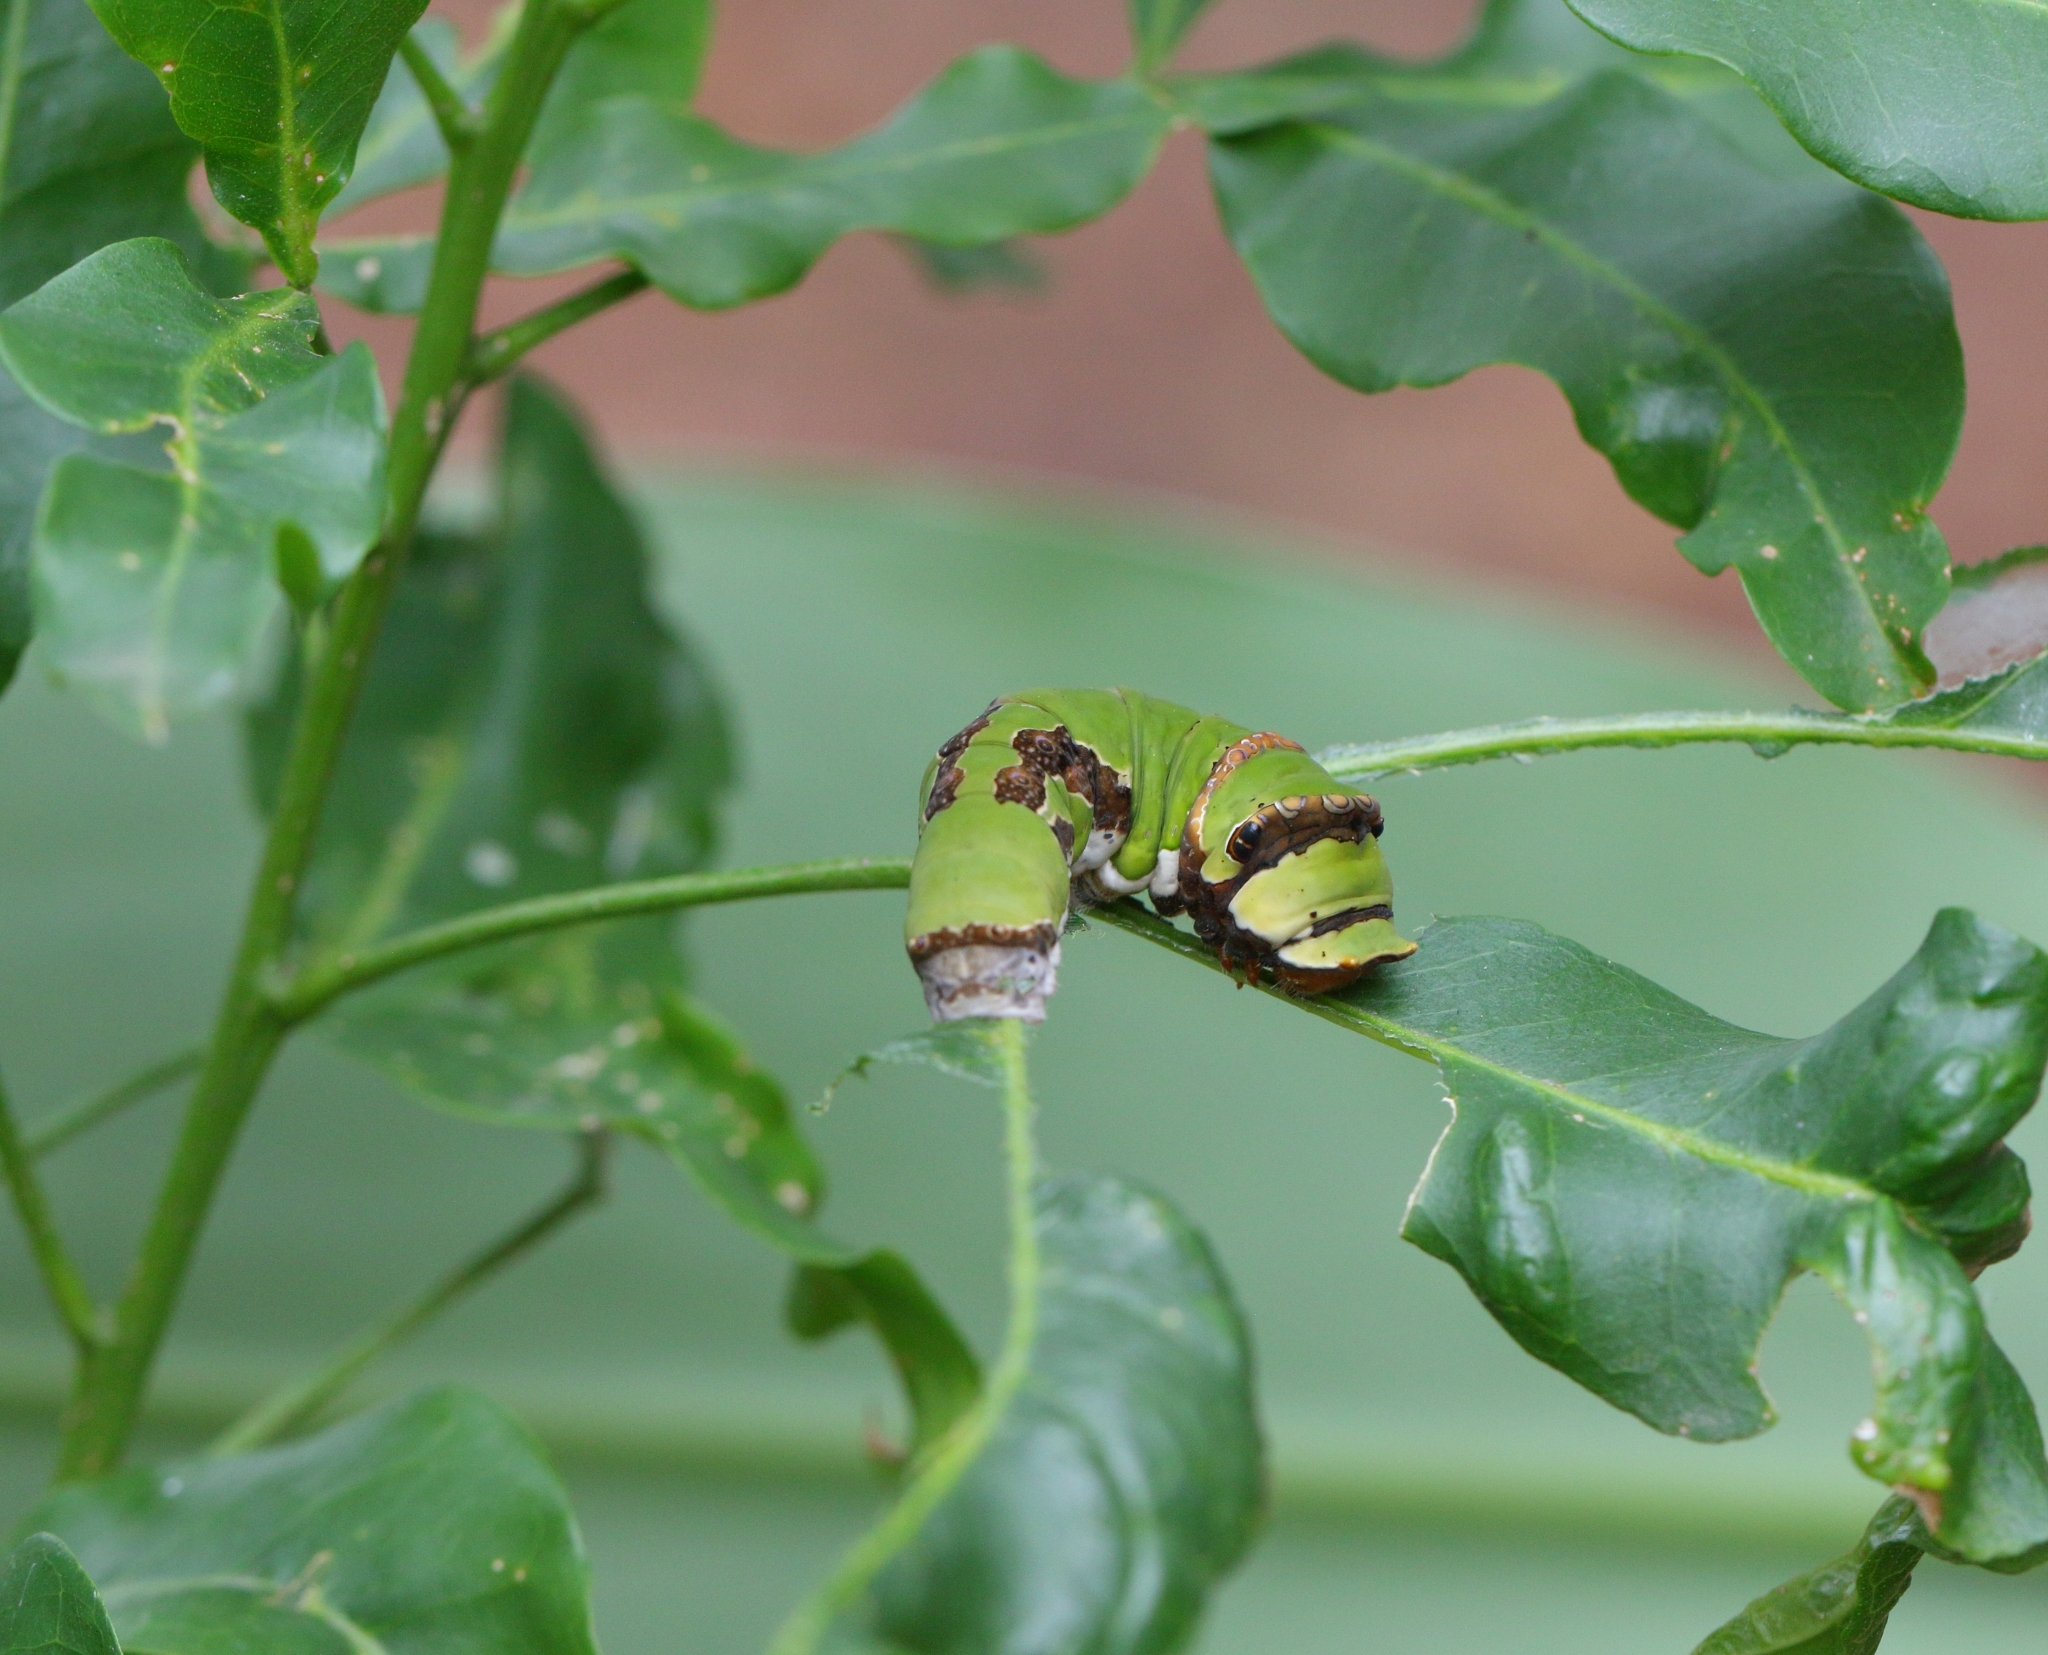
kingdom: Animalia
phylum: Arthropoda
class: Insecta
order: Lepidoptera
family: Papilionidae
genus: Papilio
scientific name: Papilio demodocus
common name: Christmas butterfly
